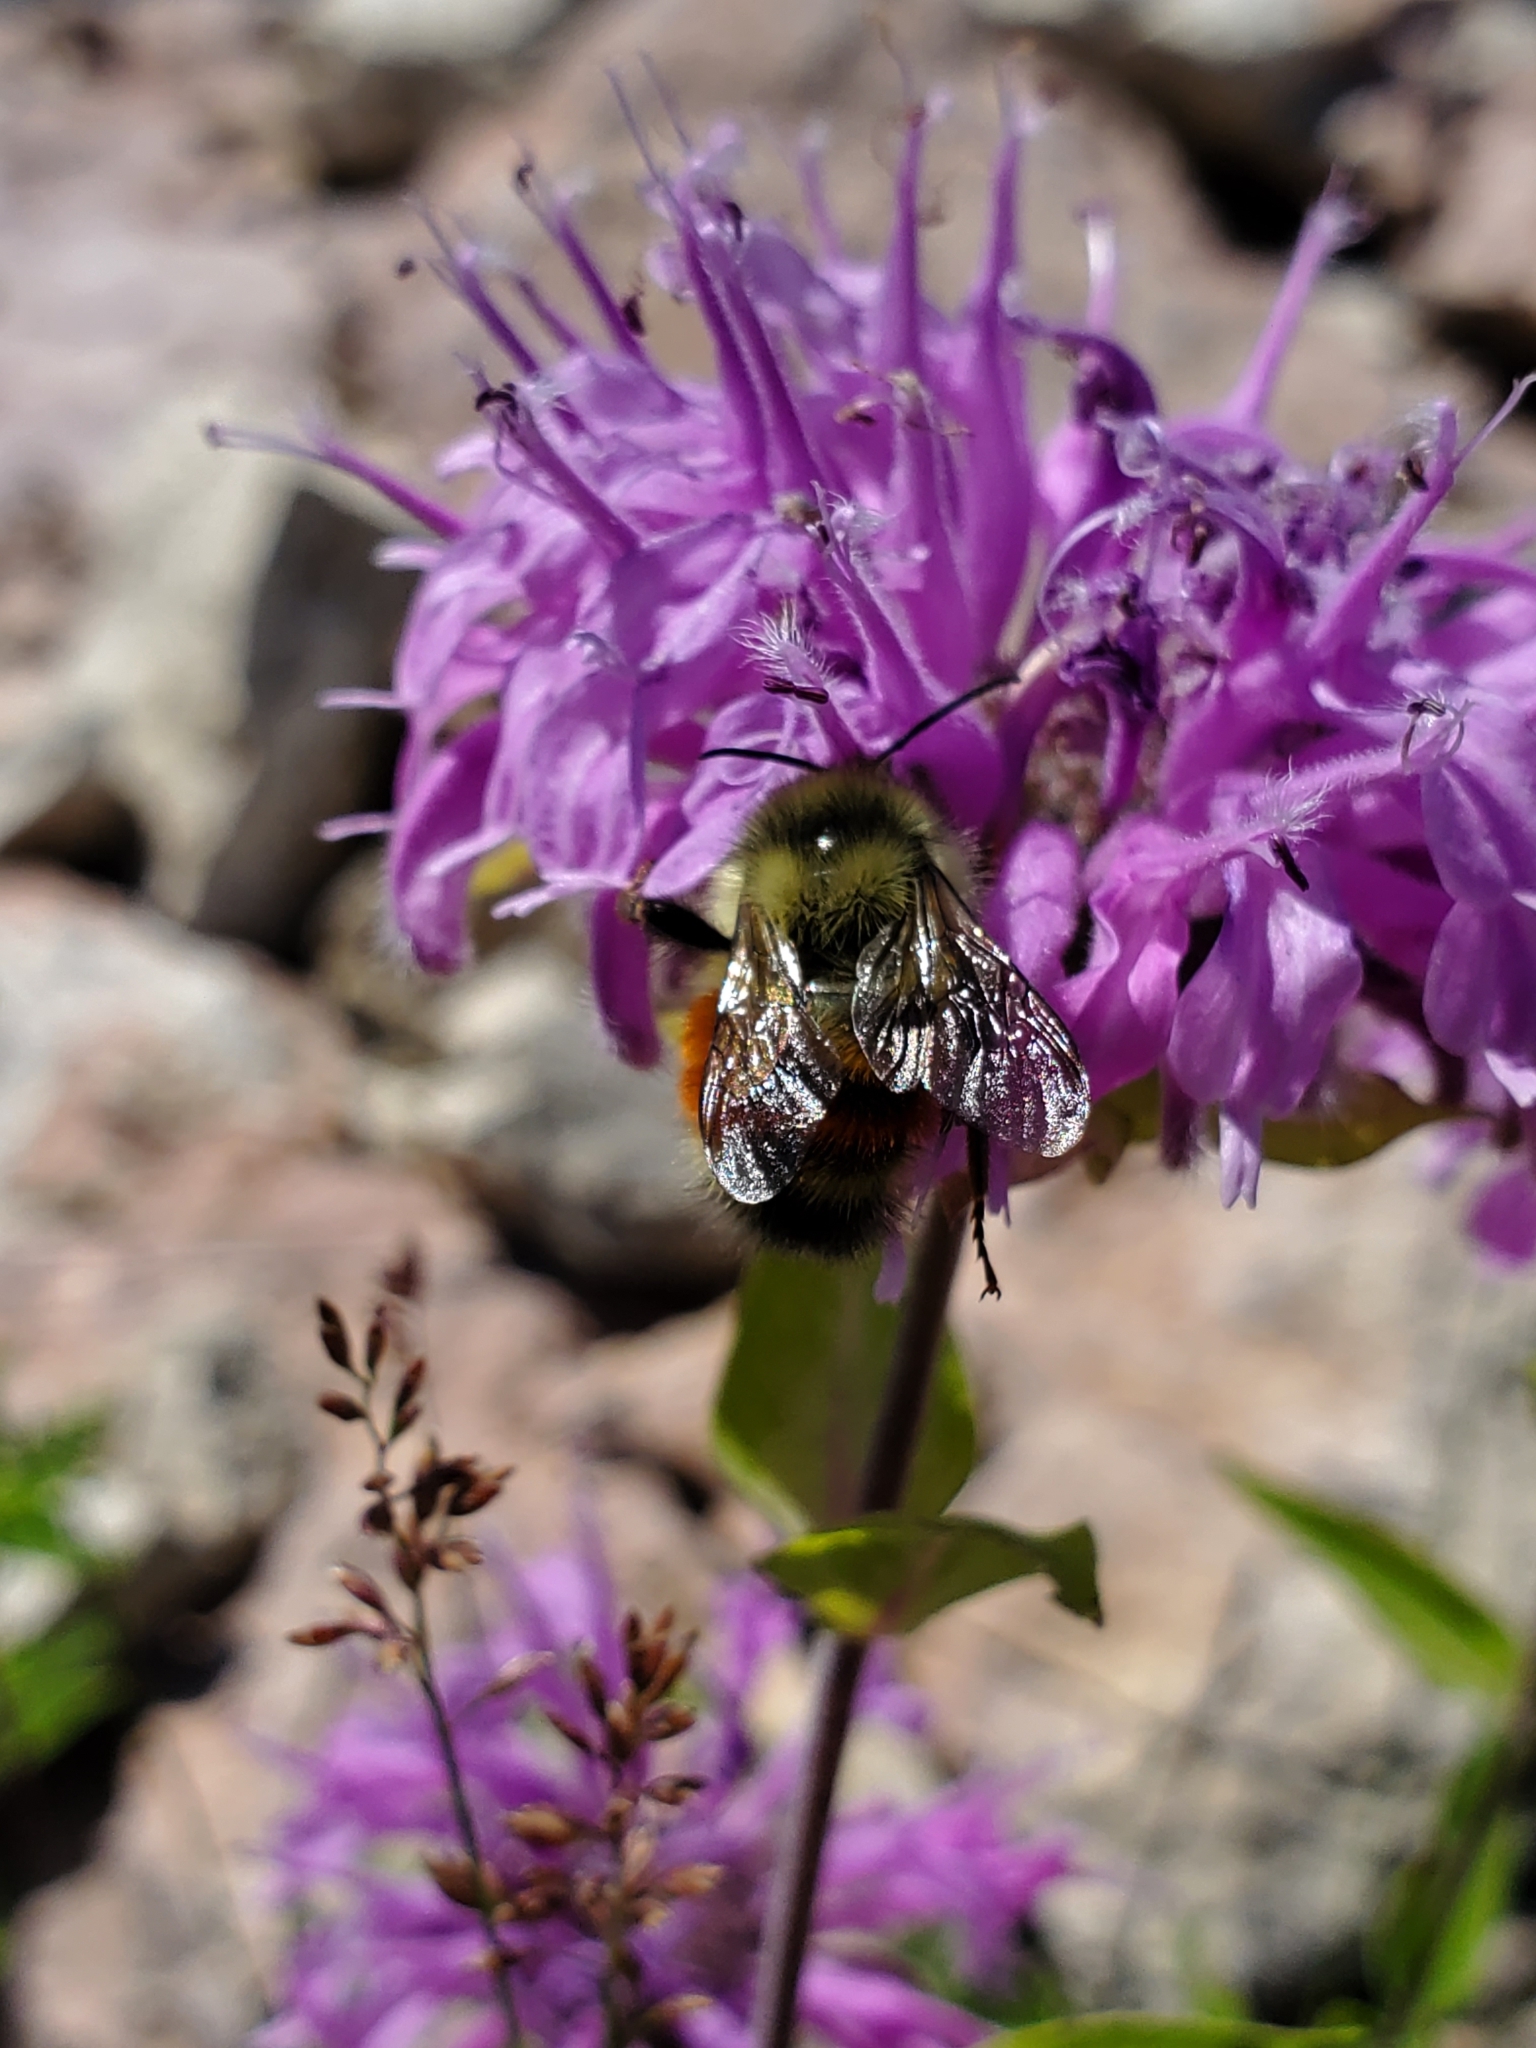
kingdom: Plantae
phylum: Tracheophyta
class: Magnoliopsida
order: Lamiales
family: Lamiaceae
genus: Monarda
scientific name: Monarda fistulosa
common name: Purple beebalm
